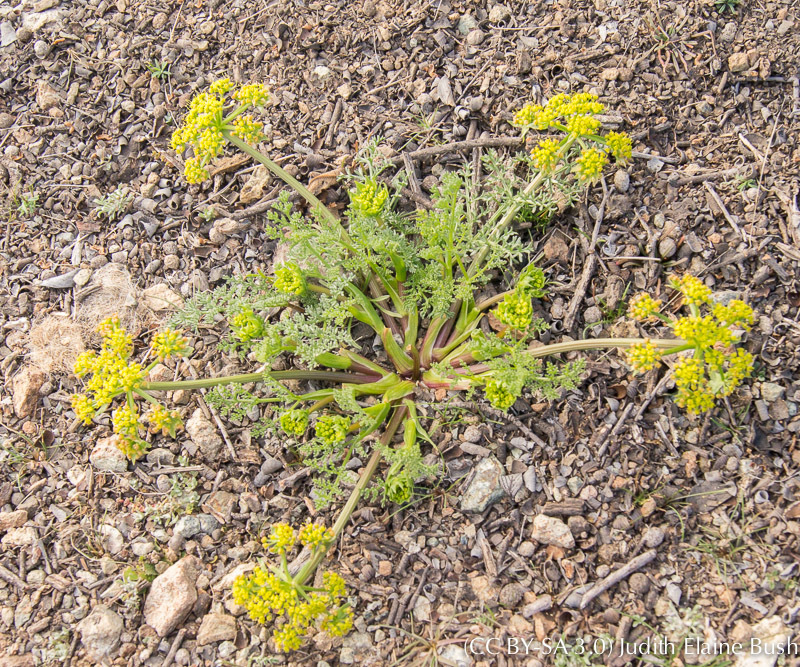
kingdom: Plantae
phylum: Tracheophyta
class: Magnoliopsida
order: Apiales
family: Apiaceae
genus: Lomatium
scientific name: Lomatium dasycarpum
